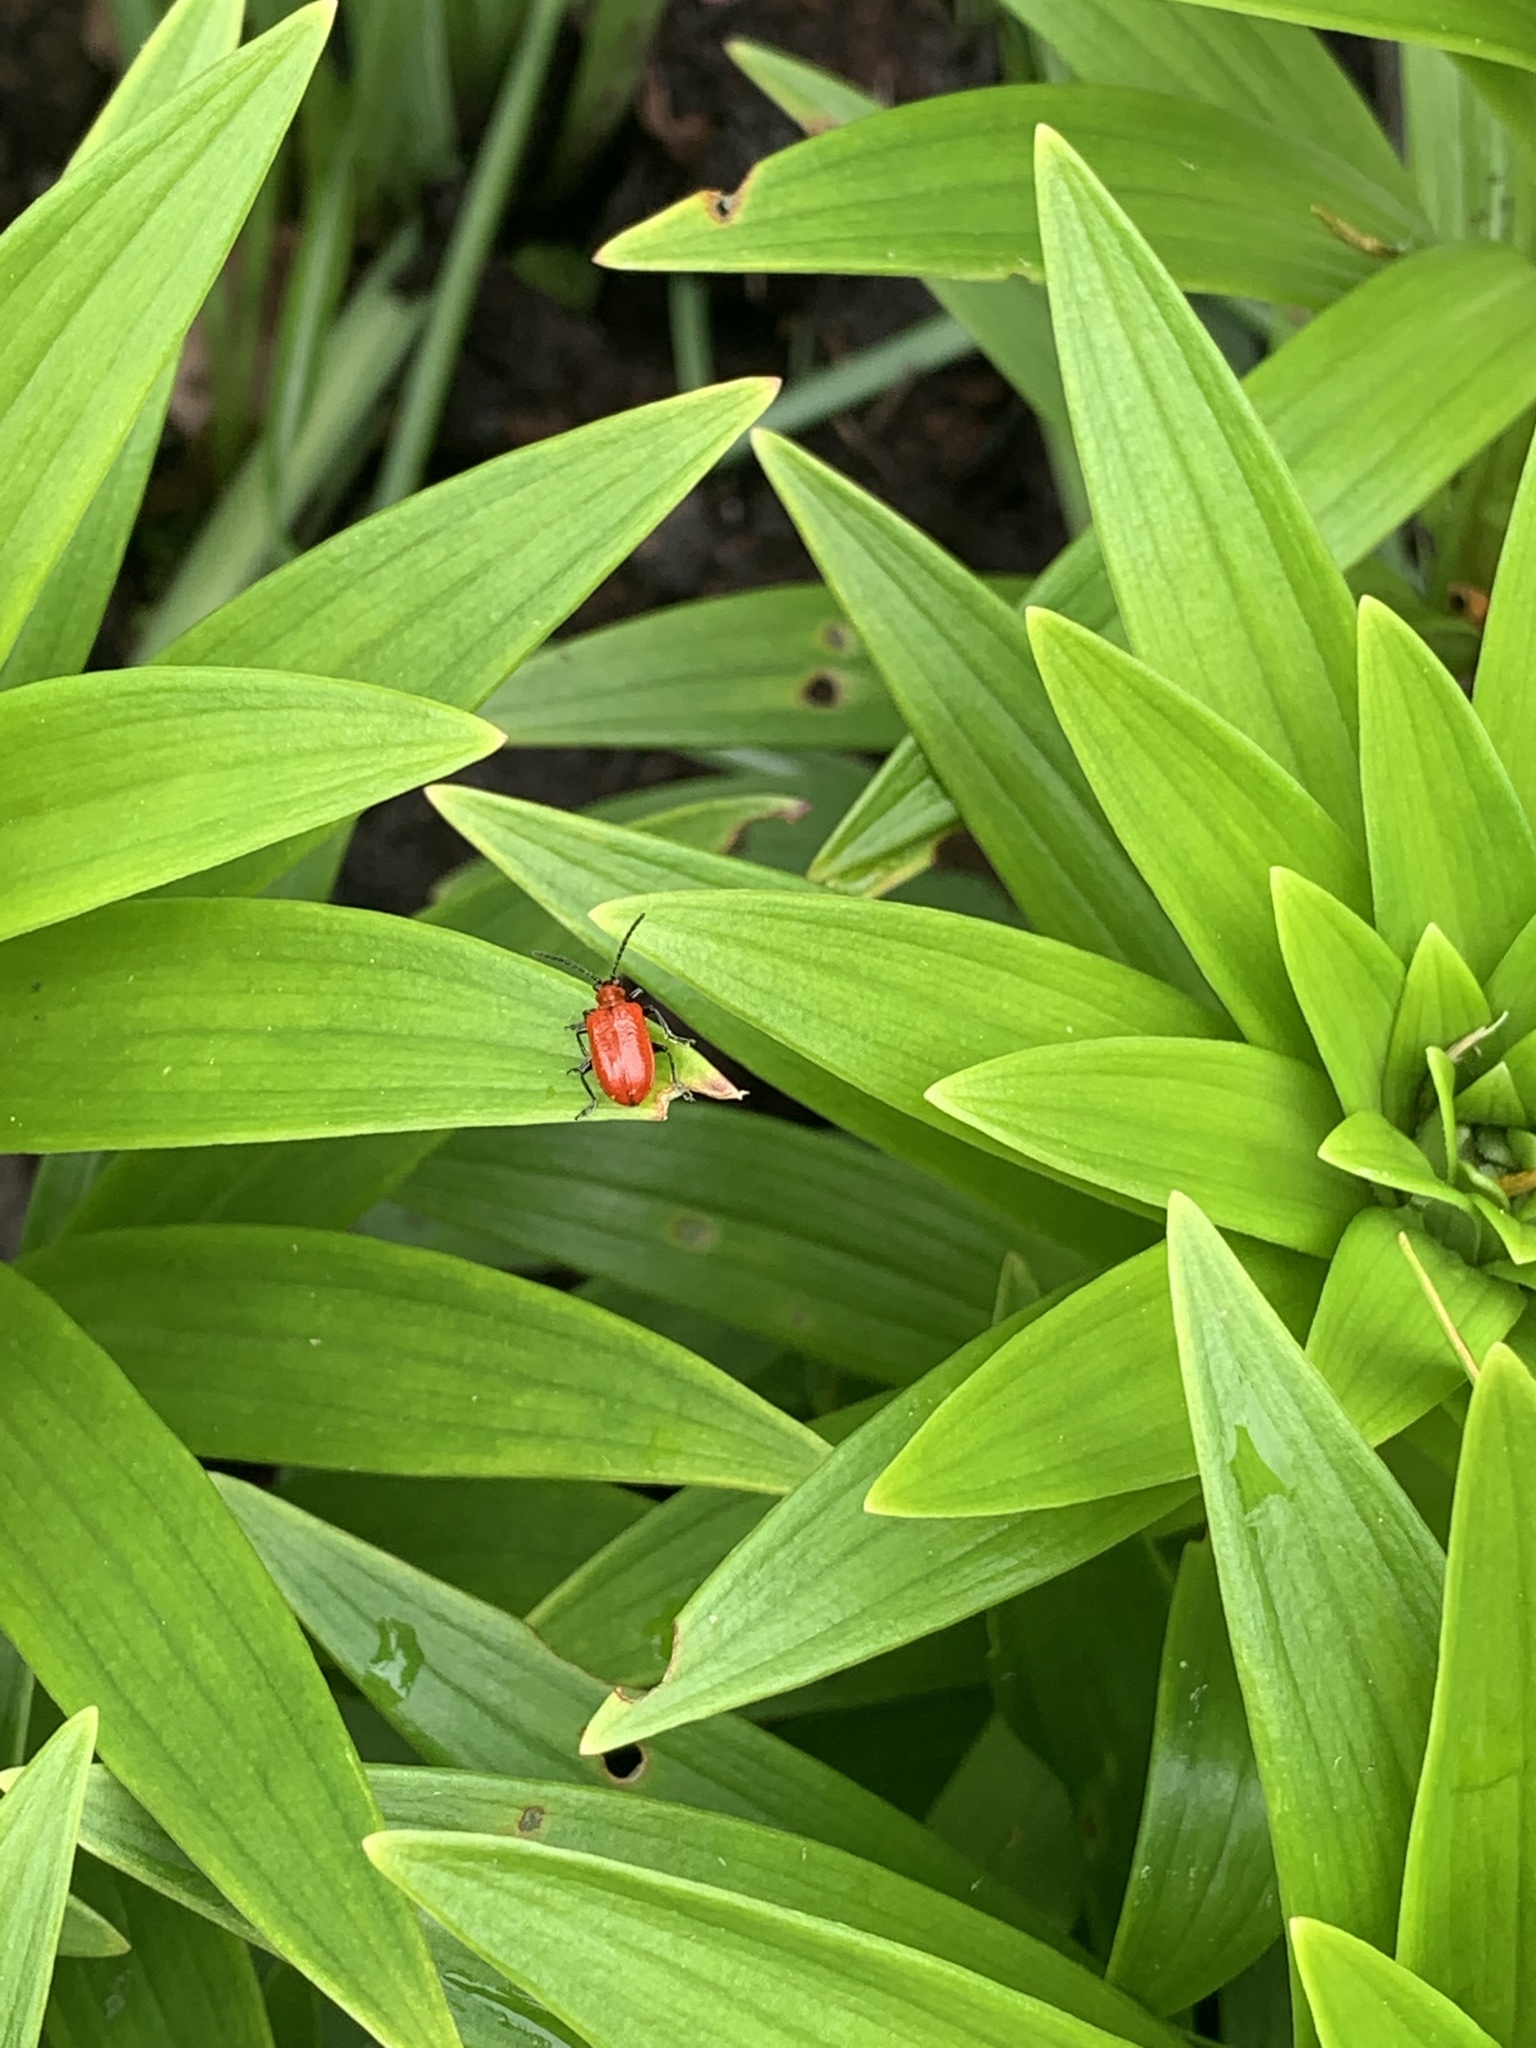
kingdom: Animalia
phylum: Arthropoda
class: Insecta
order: Coleoptera
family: Chrysomelidae
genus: Lilioceris
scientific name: Lilioceris lilii
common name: Lily beetle
